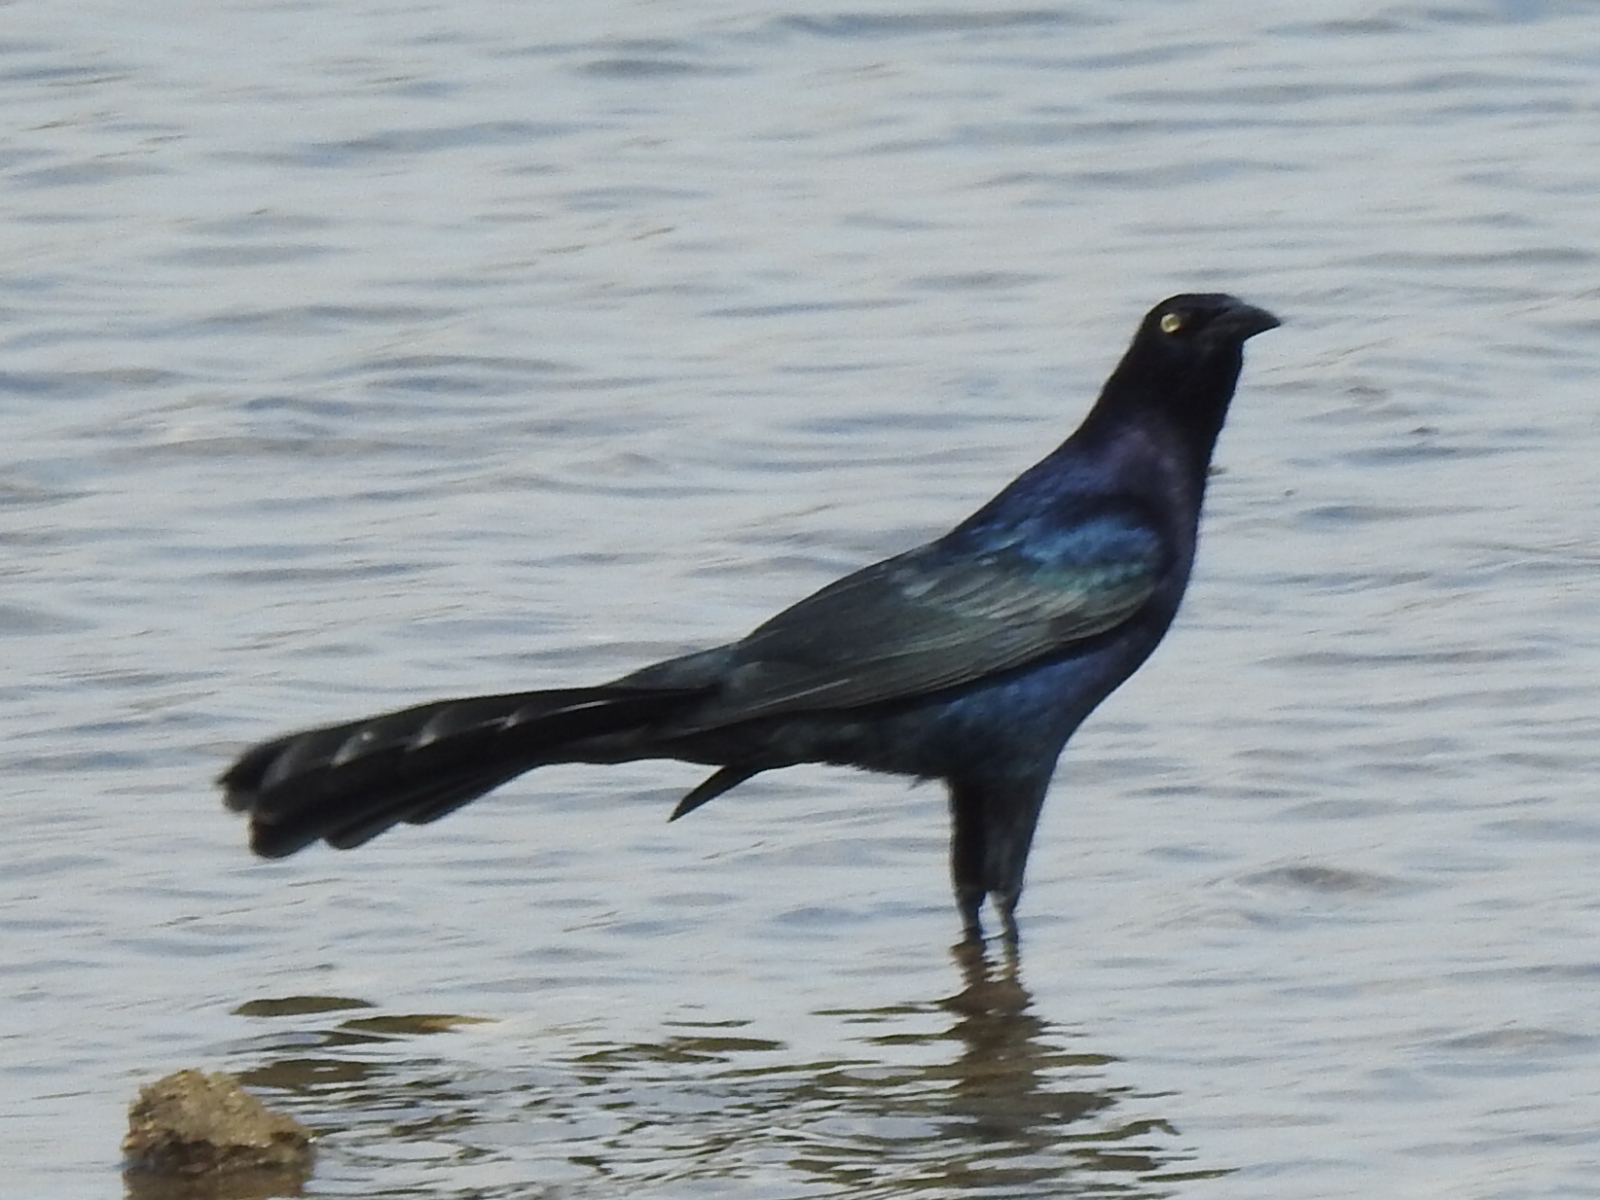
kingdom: Animalia
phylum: Chordata
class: Aves
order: Passeriformes
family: Icteridae
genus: Quiscalus
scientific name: Quiscalus mexicanus
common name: Great-tailed grackle
